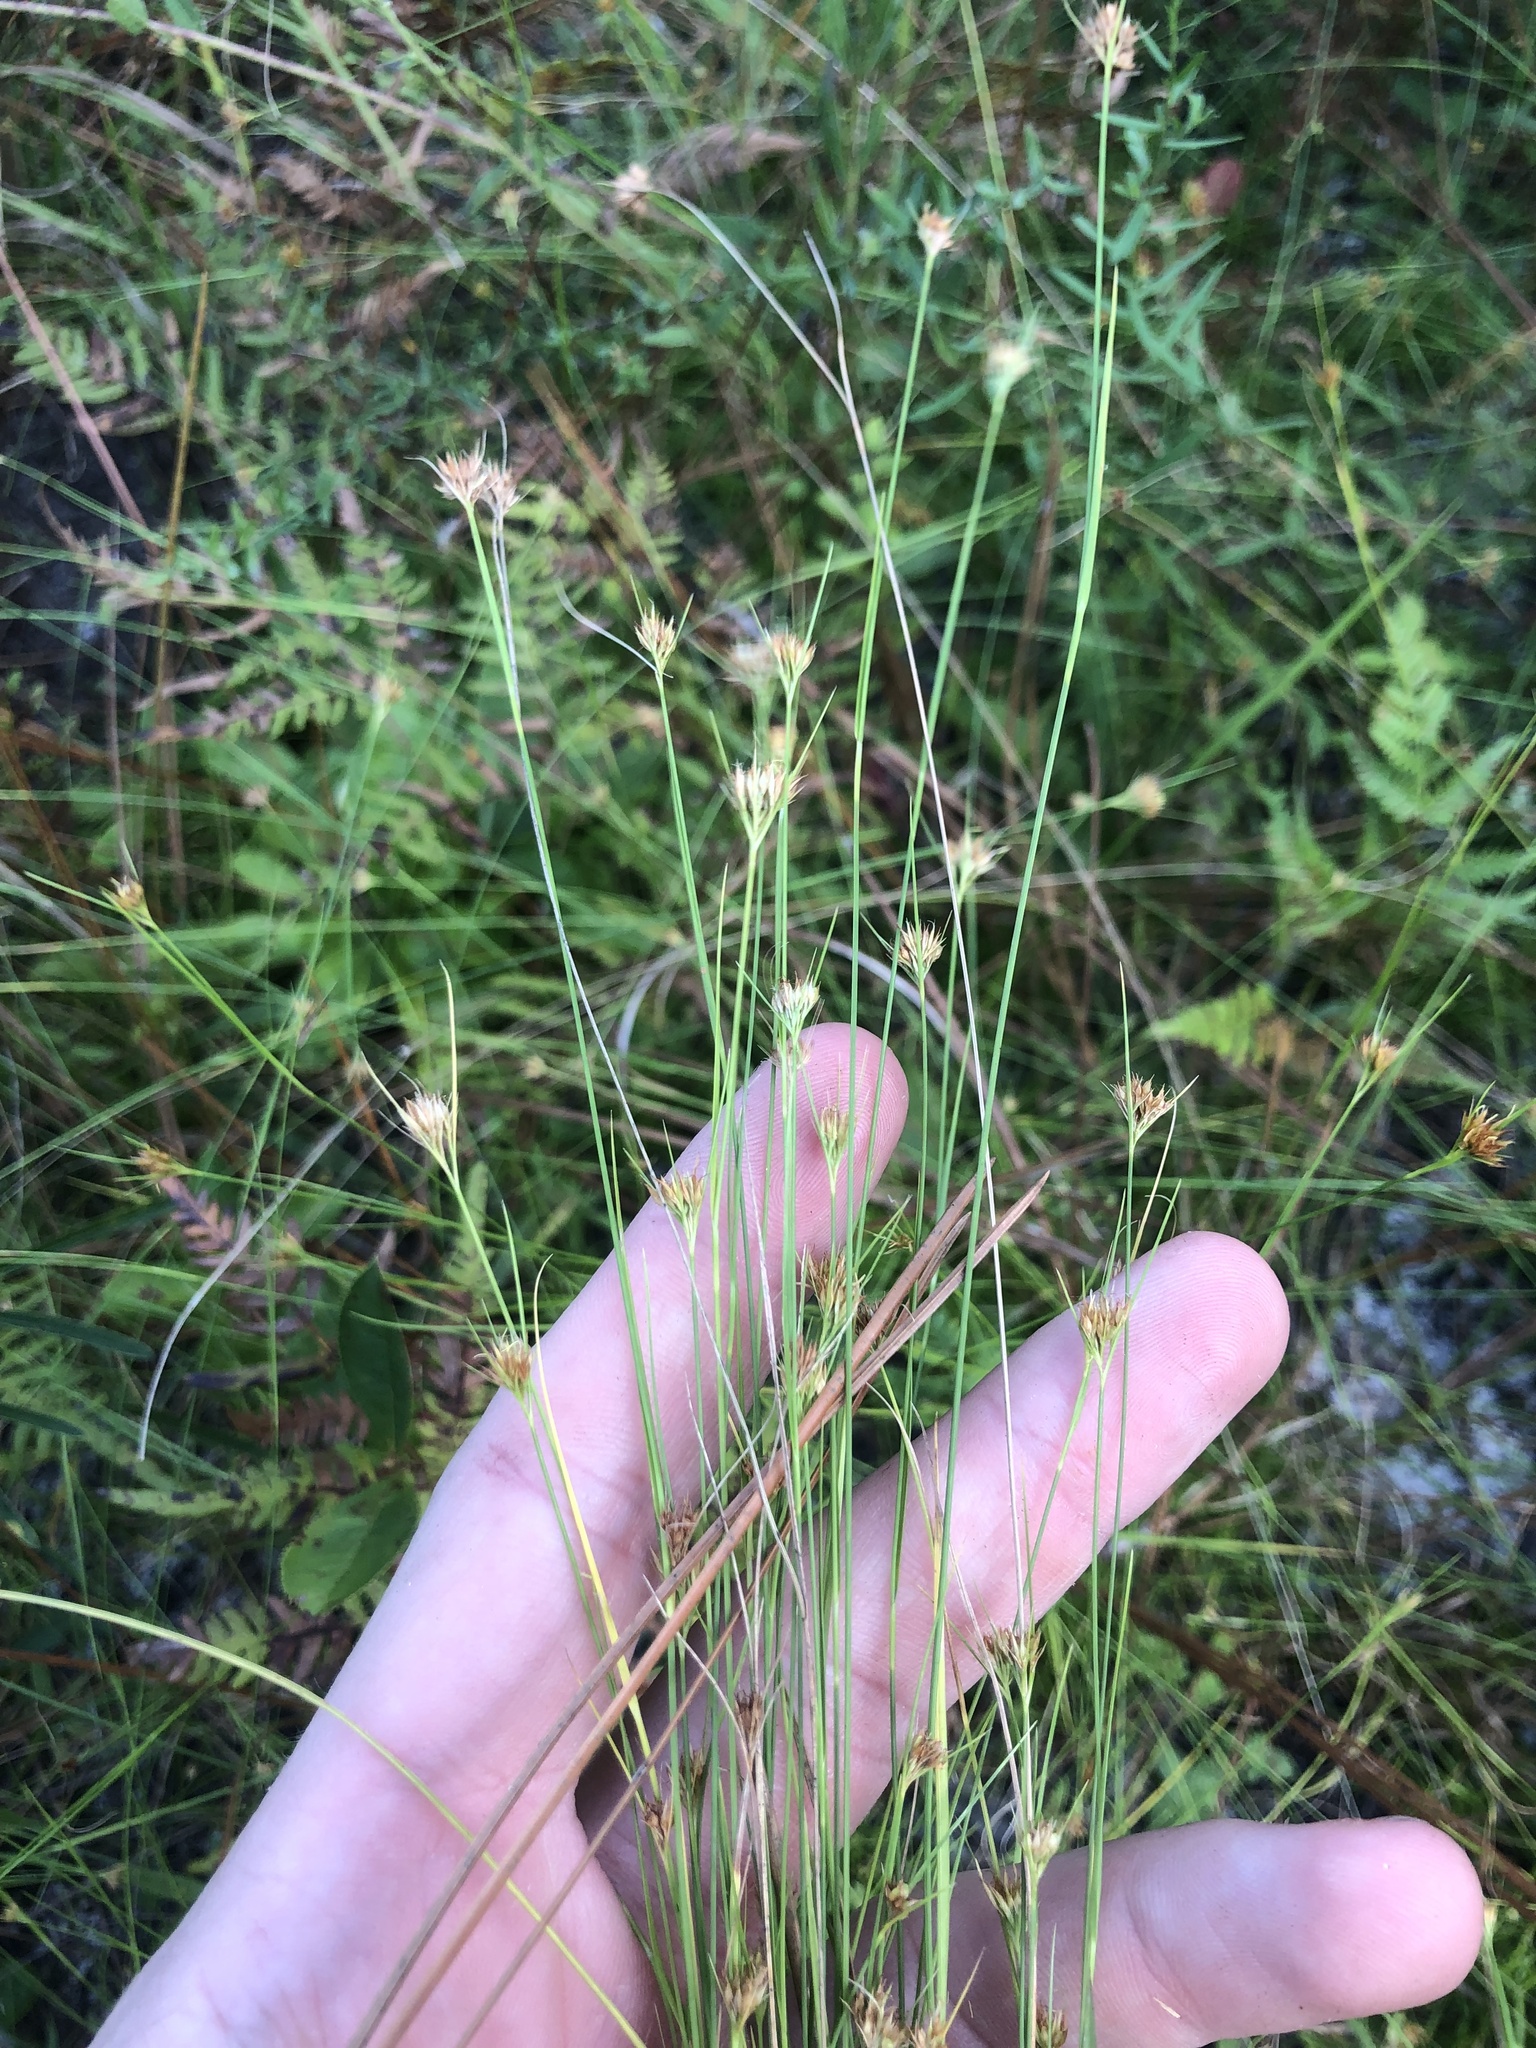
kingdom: Plantae
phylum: Tracheophyta
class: Liliopsida
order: Poales
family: Cyperaceae
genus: Rhynchospora
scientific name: Rhynchospora chapmanii
